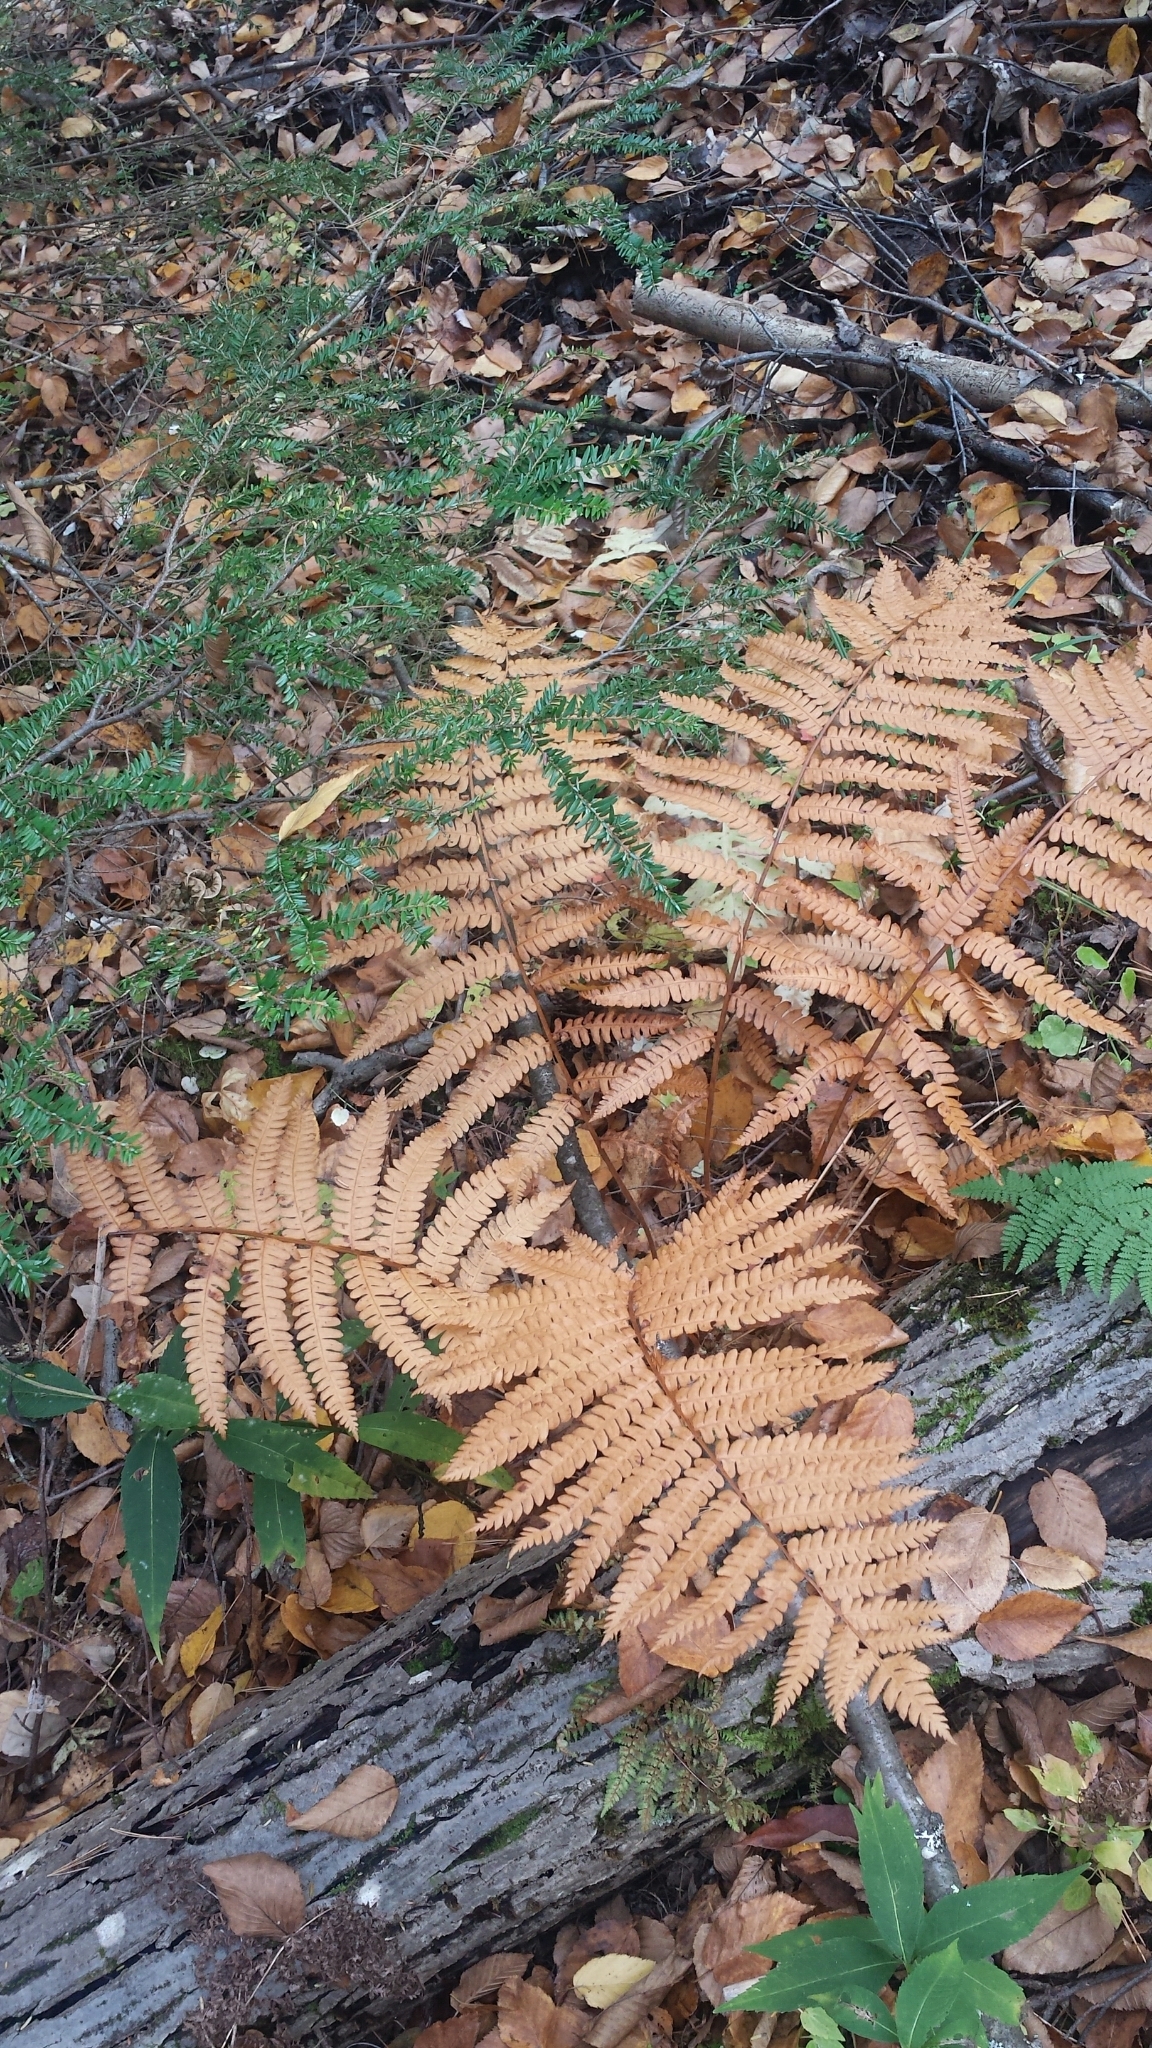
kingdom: Plantae
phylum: Tracheophyta
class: Polypodiopsida
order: Osmundales
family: Osmundaceae
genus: Osmundastrum
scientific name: Osmundastrum cinnamomeum
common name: Cinnamon fern
